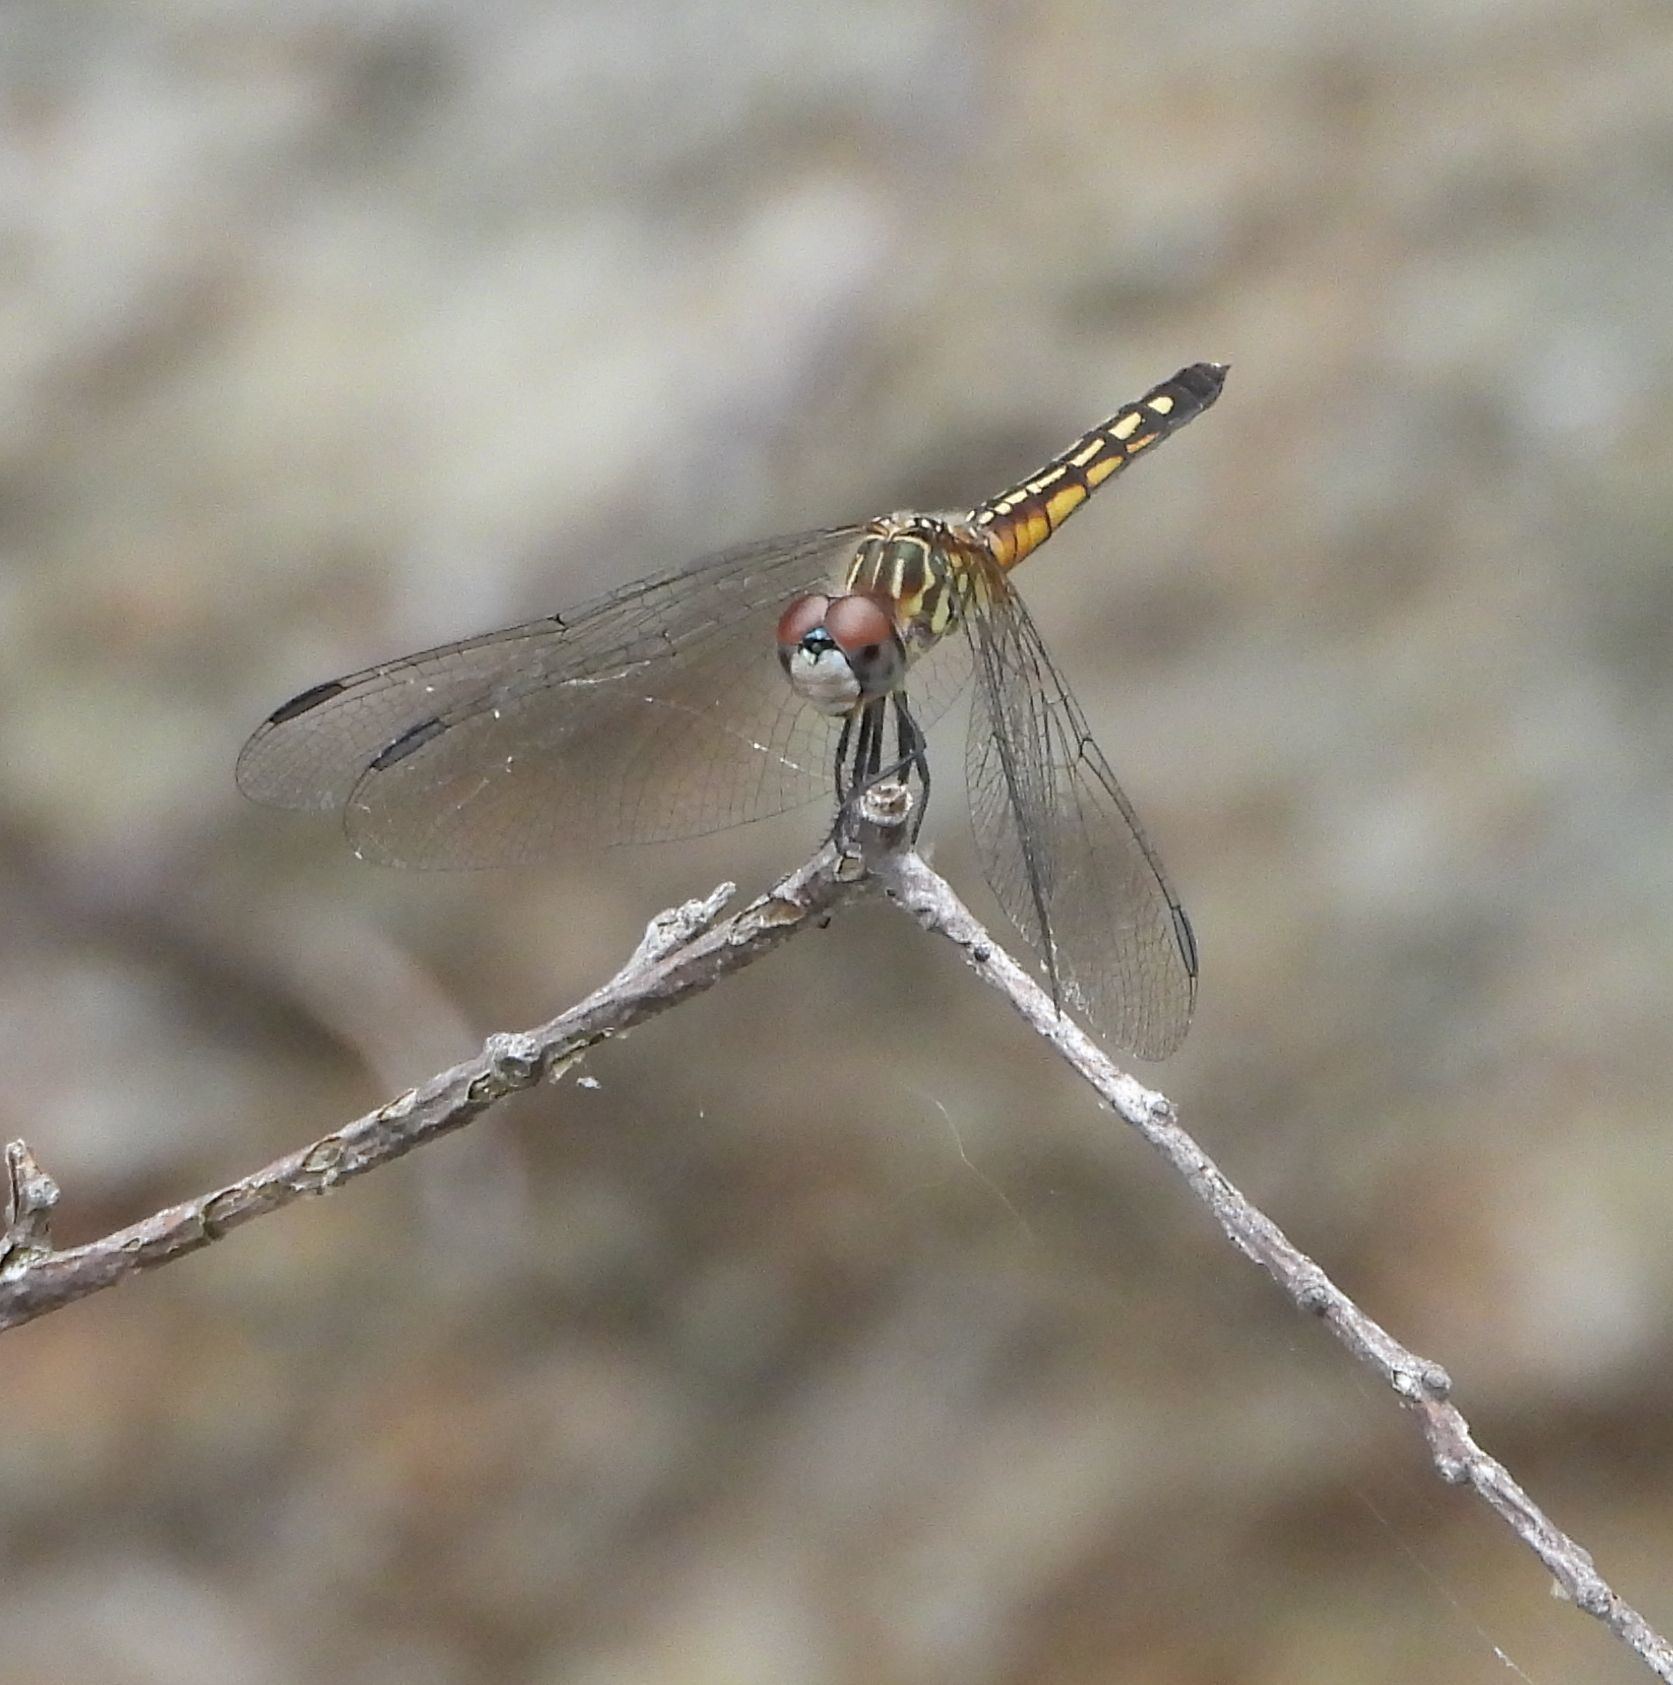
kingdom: Animalia
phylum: Arthropoda
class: Insecta
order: Odonata
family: Libellulidae
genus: Pachydiplax
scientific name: Pachydiplax longipennis
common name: Blue dasher
